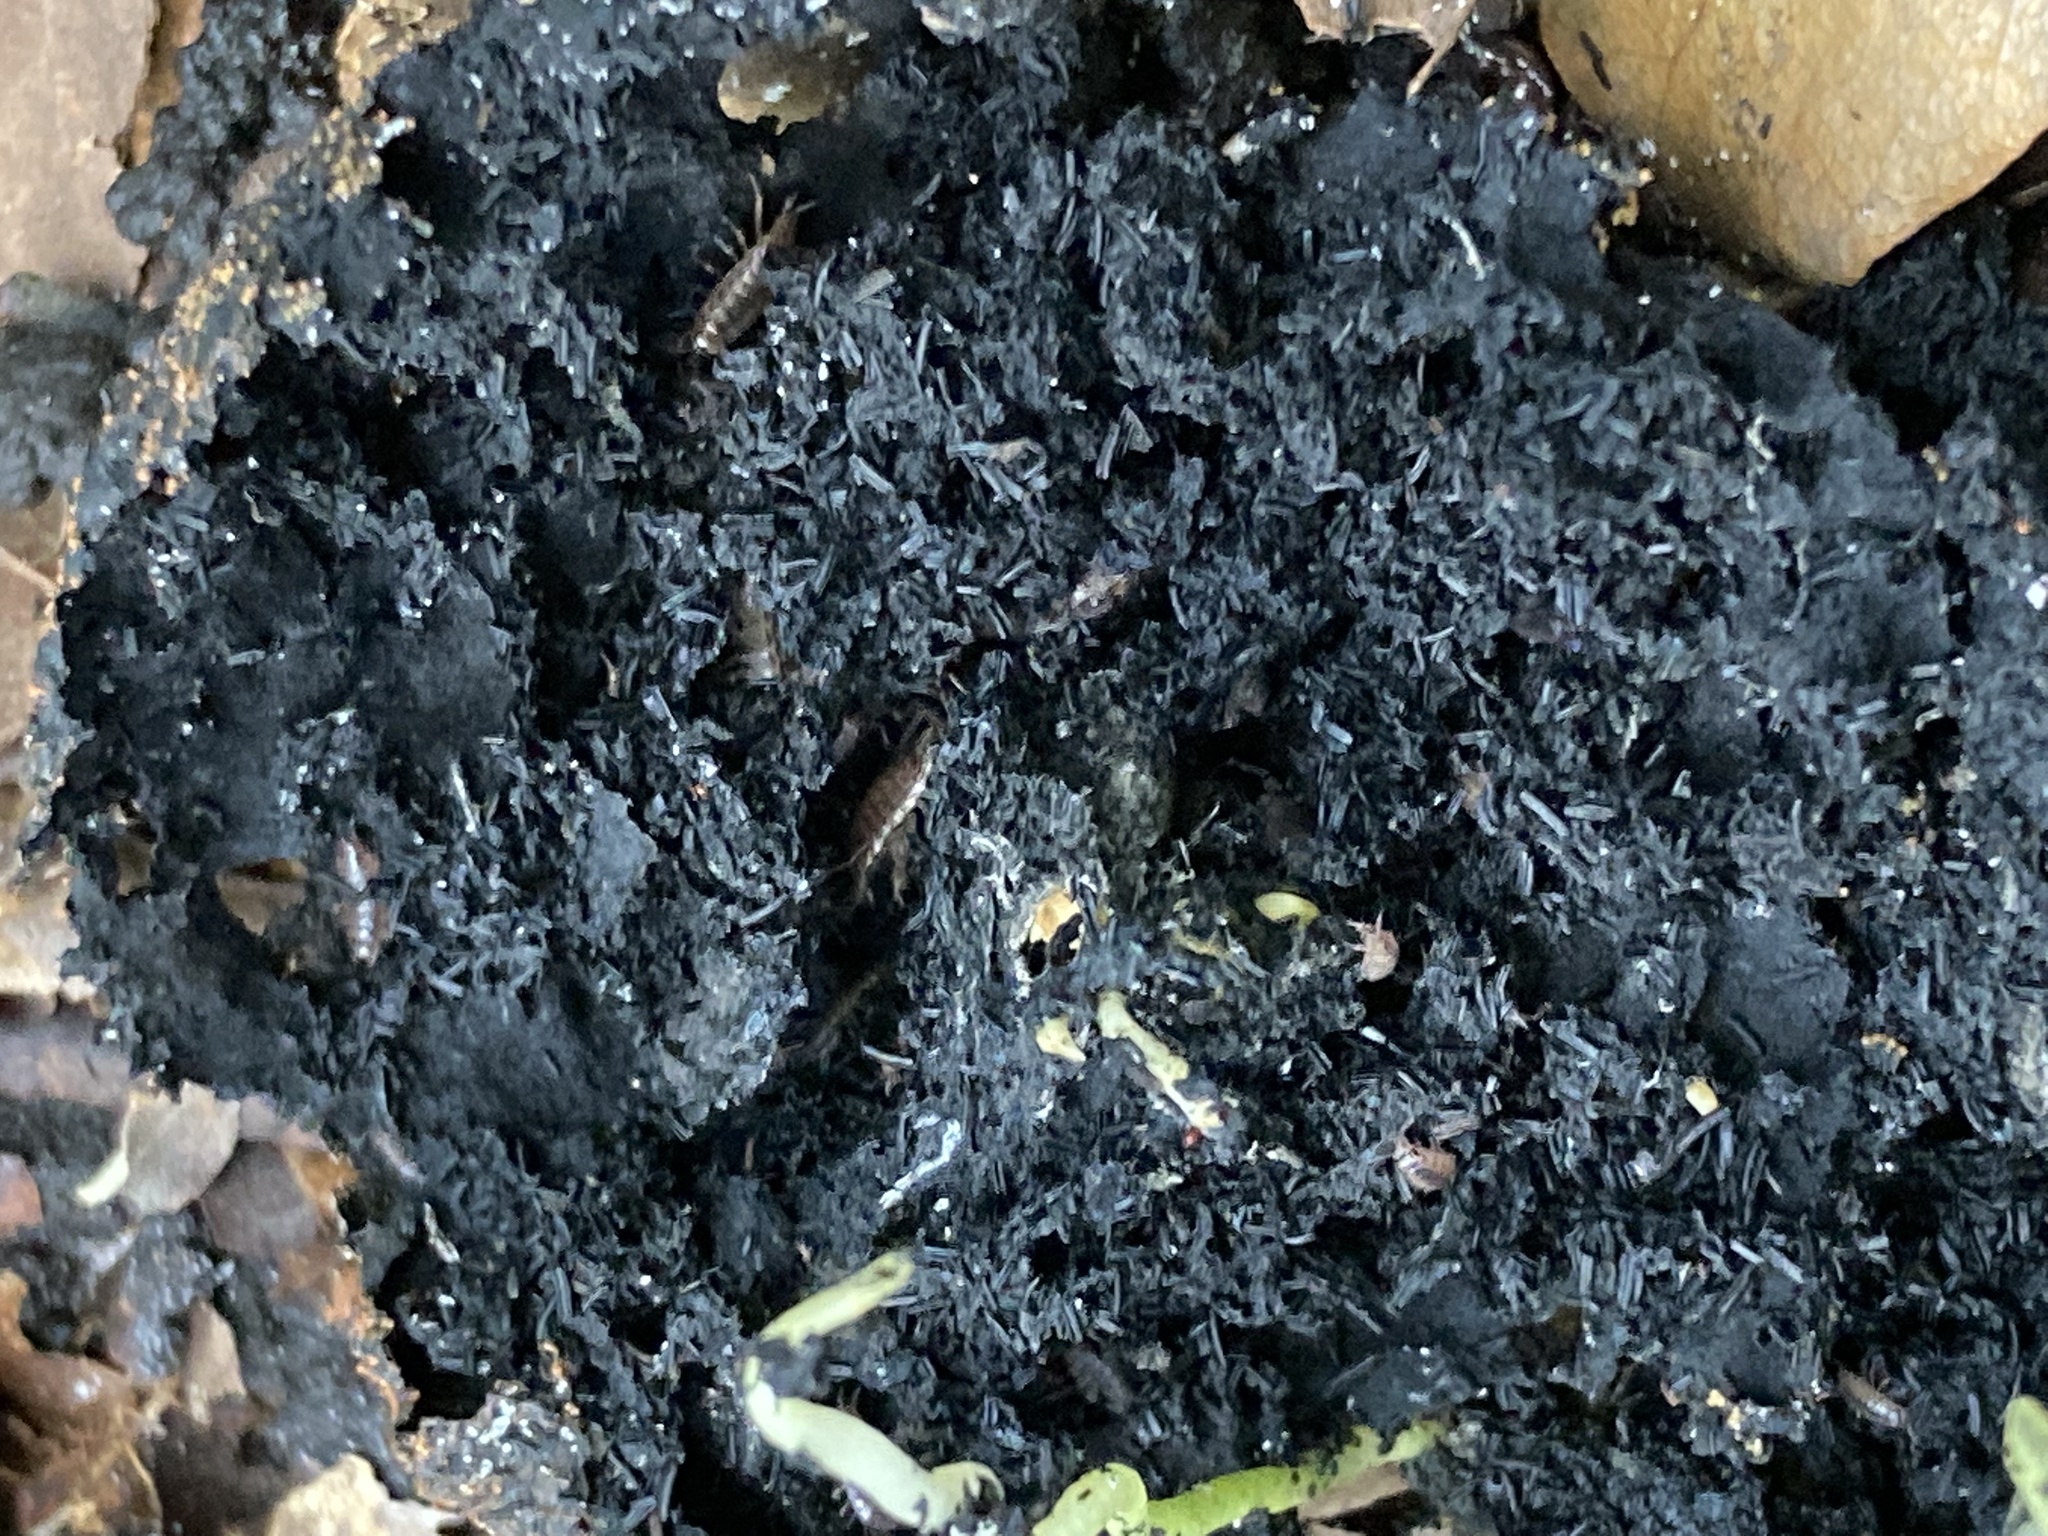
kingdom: Animalia
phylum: Arthropoda
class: Malacostraca
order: Isopoda
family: Philosciidae
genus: Atlantoscia
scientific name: Atlantoscia floridana
